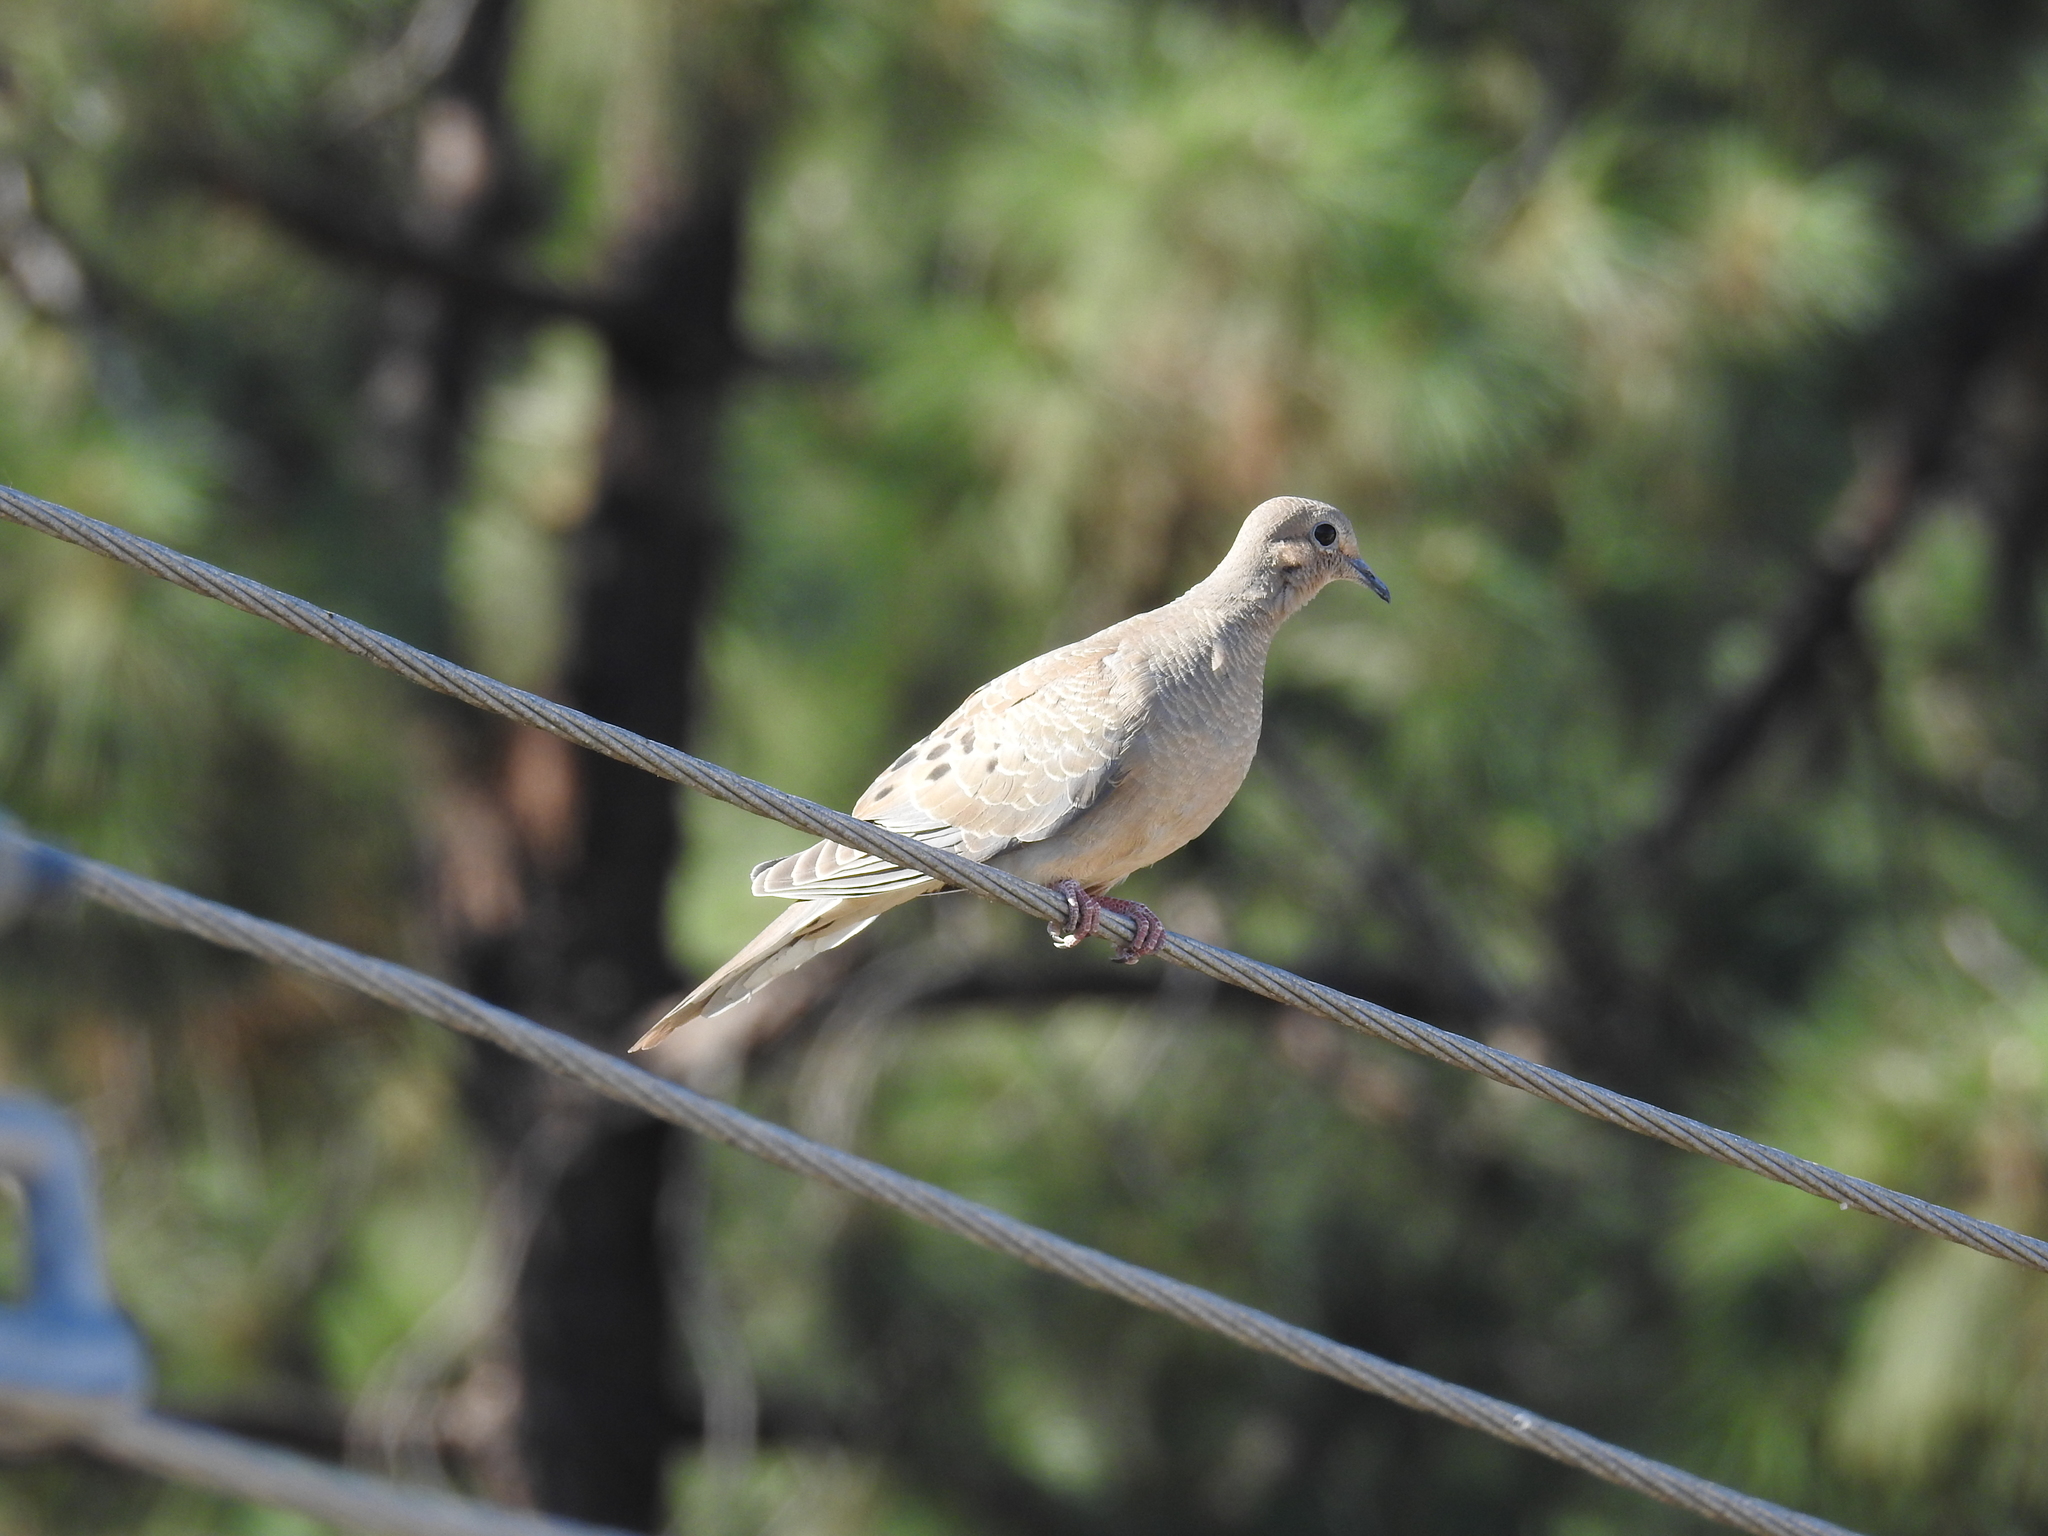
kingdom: Animalia
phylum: Chordata
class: Aves
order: Columbiformes
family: Columbidae
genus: Zenaida
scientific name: Zenaida macroura
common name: Mourning dove
